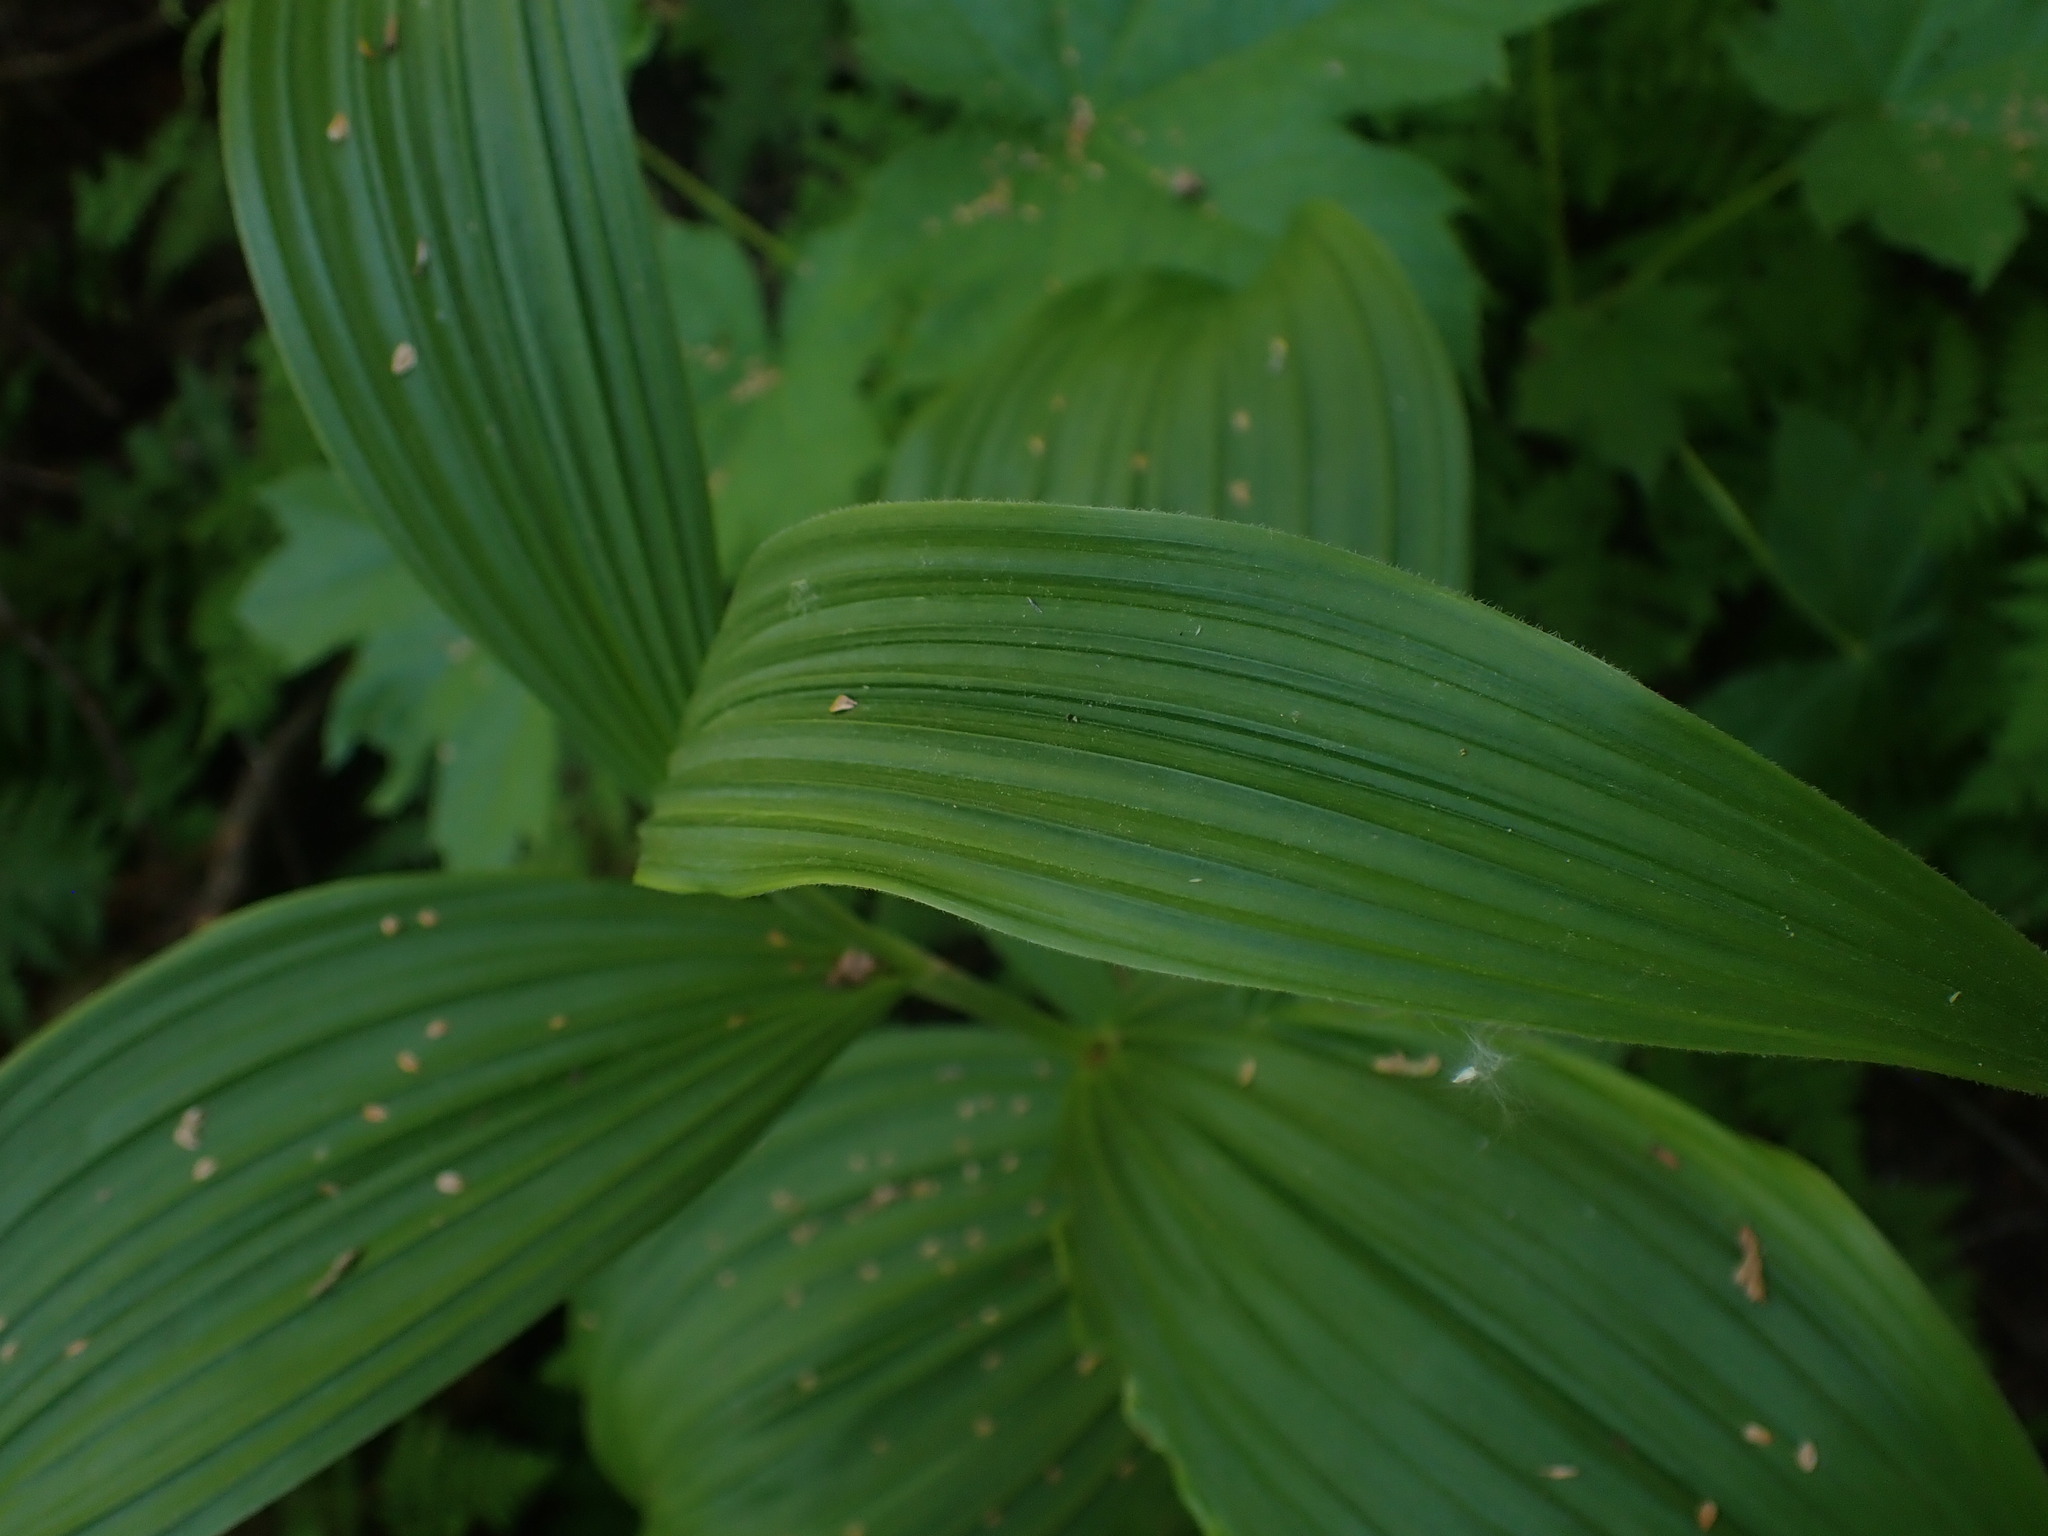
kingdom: Plantae
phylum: Tracheophyta
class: Liliopsida
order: Liliales
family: Melanthiaceae
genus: Veratrum
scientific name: Veratrum viride
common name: American false hellebore
